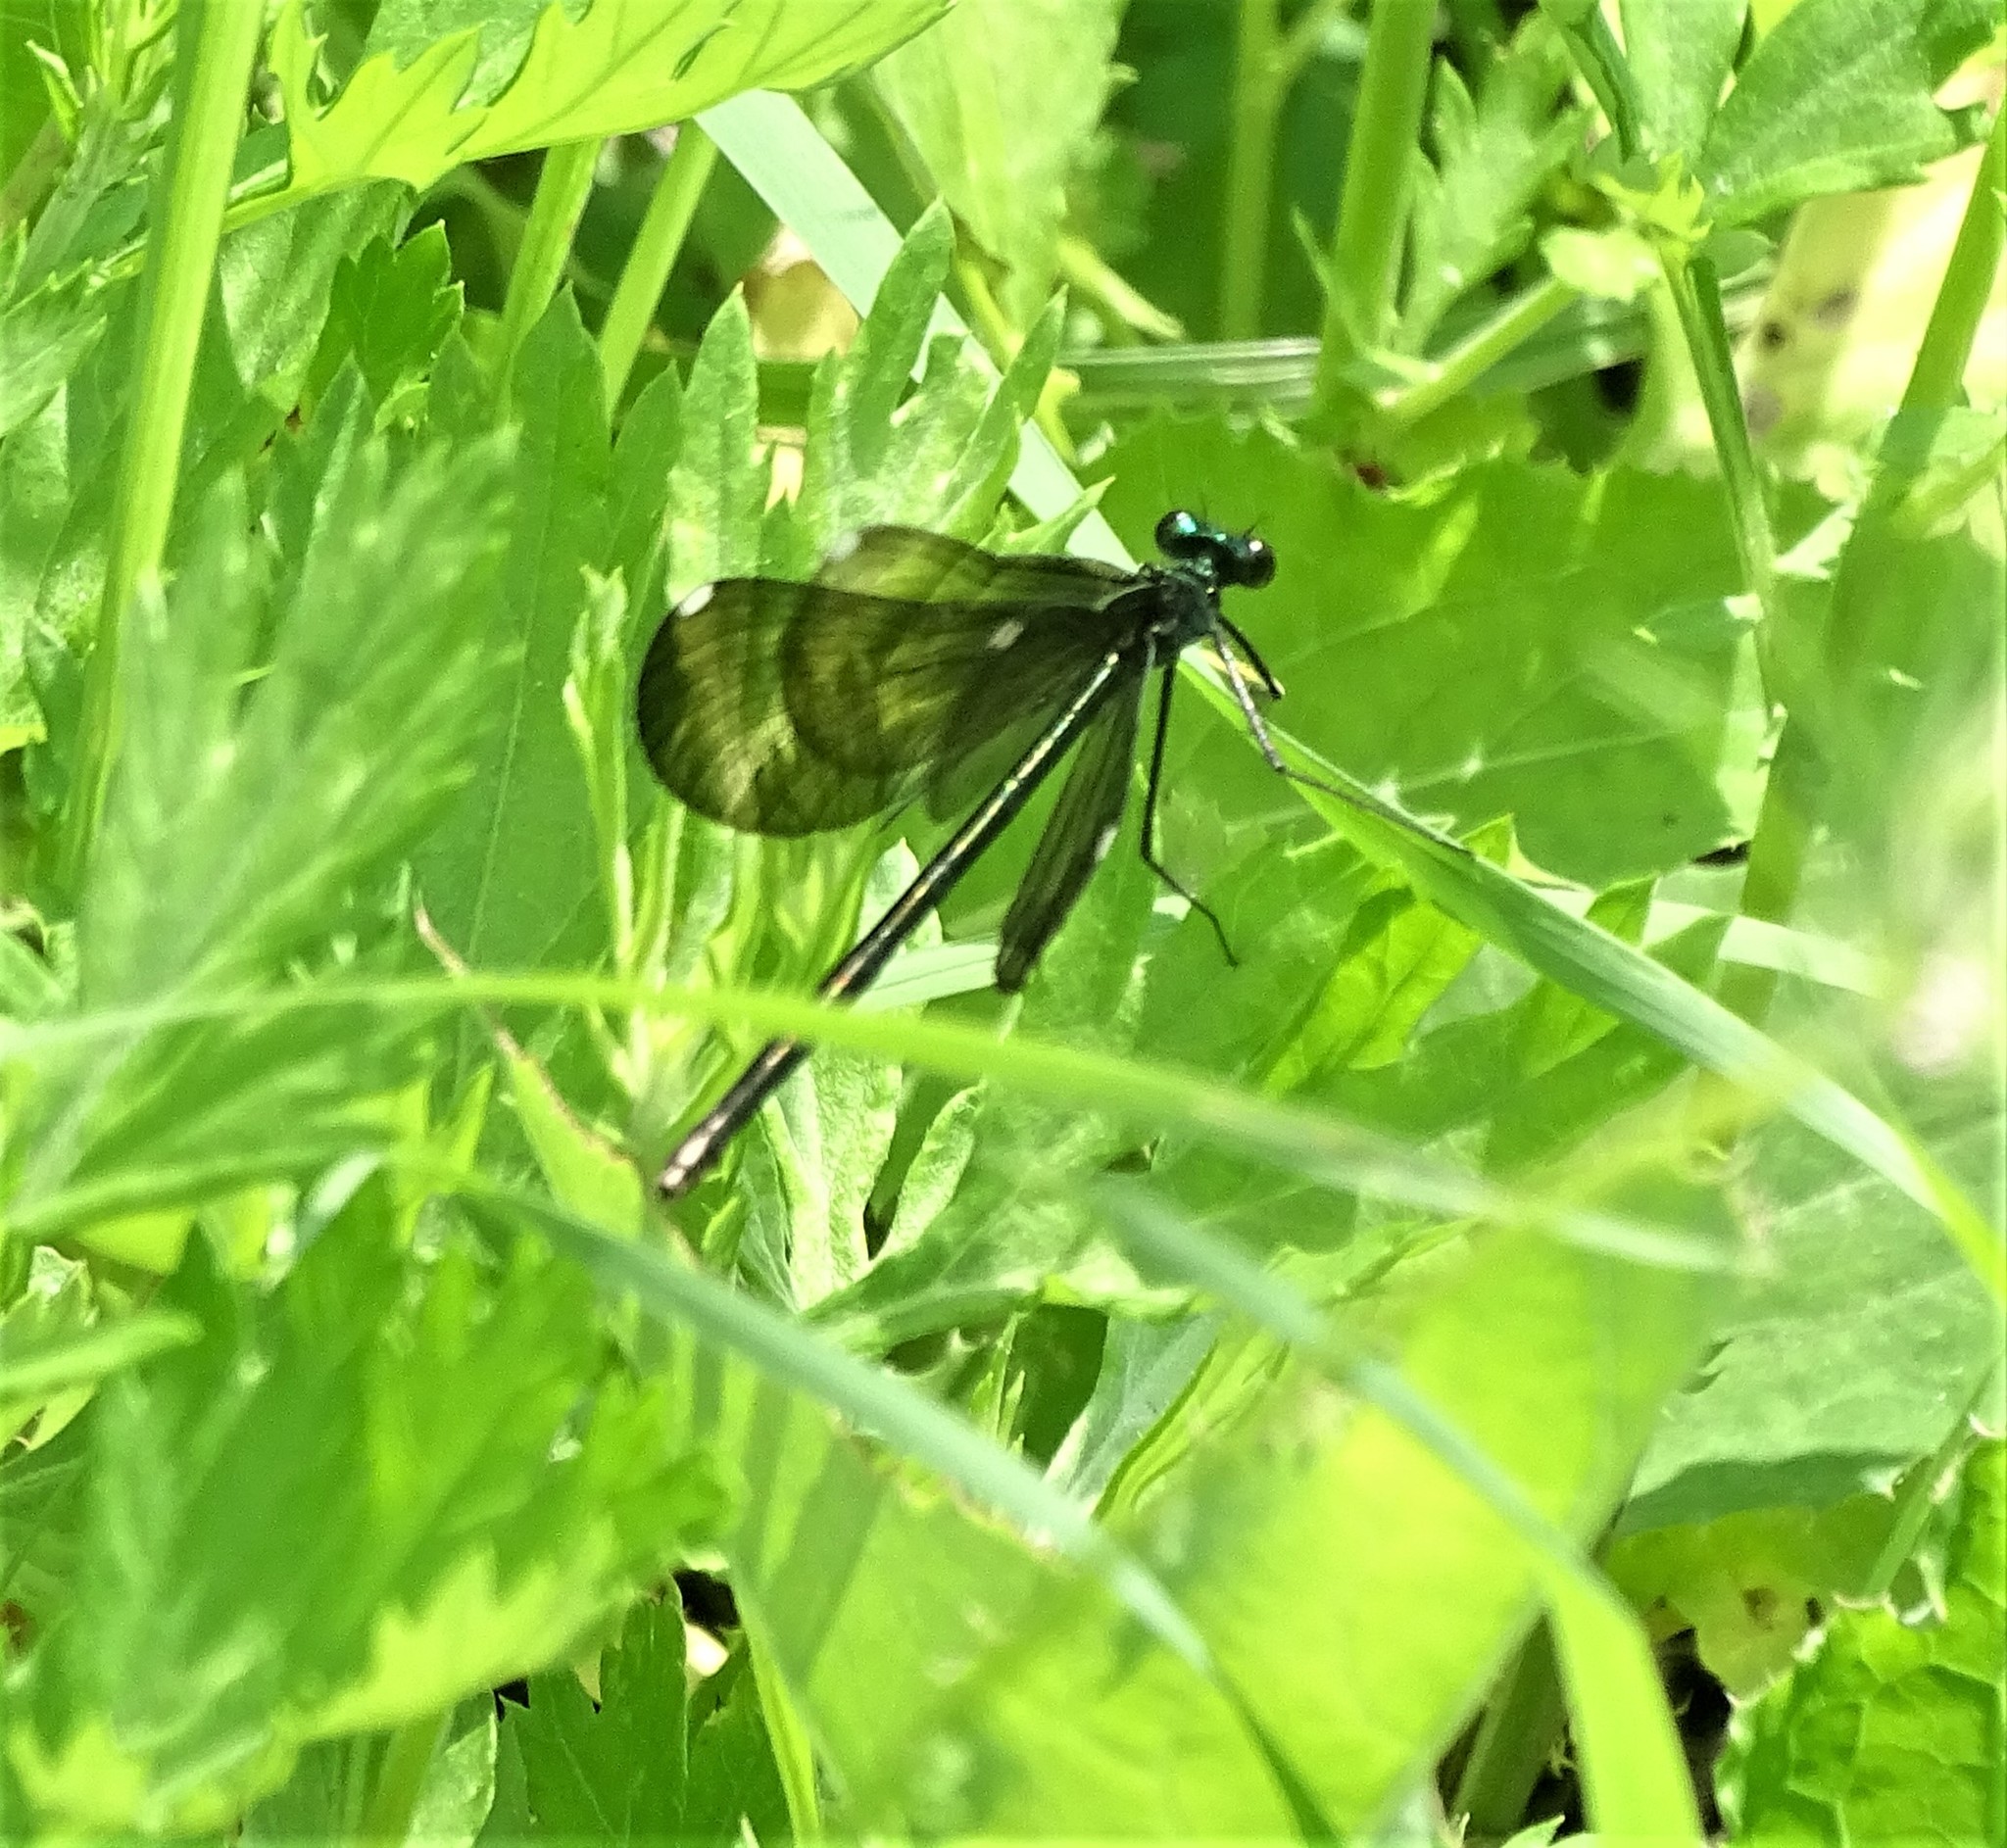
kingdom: Animalia
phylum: Arthropoda
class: Insecta
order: Odonata
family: Calopterygidae
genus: Calopteryx
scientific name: Calopteryx maculata
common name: Ebony jewelwing
